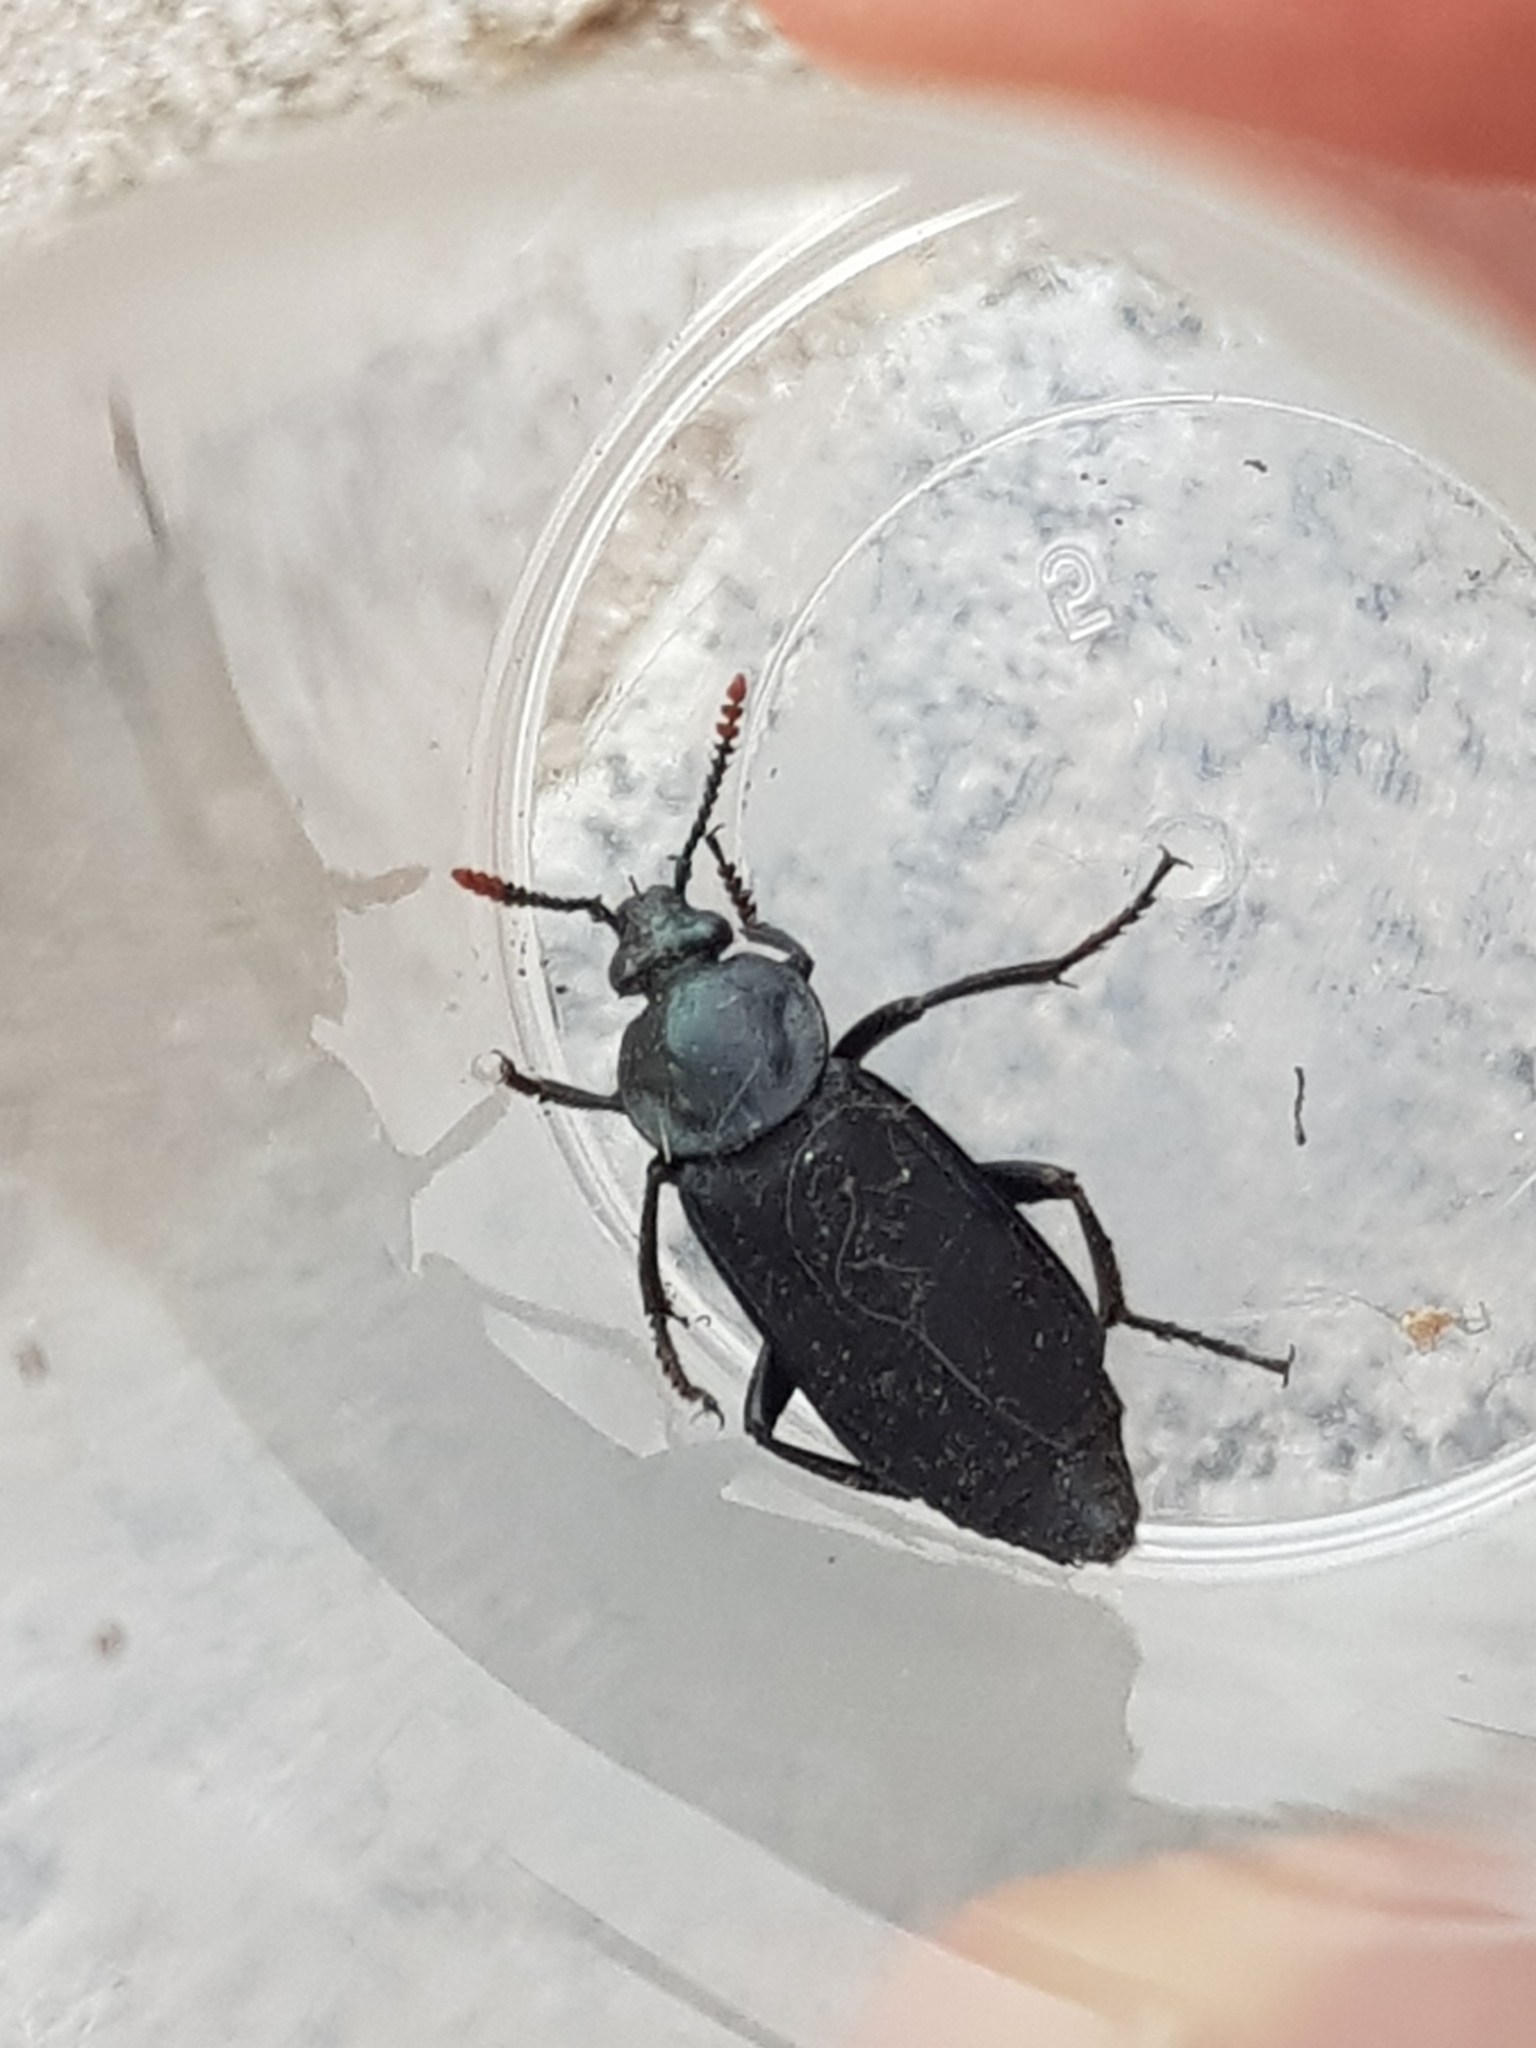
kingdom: Animalia
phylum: Arthropoda
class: Insecta
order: Coleoptera
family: Staphylinidae
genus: Necrodes
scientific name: Necrodes littoralis
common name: Shore sexton beetle
